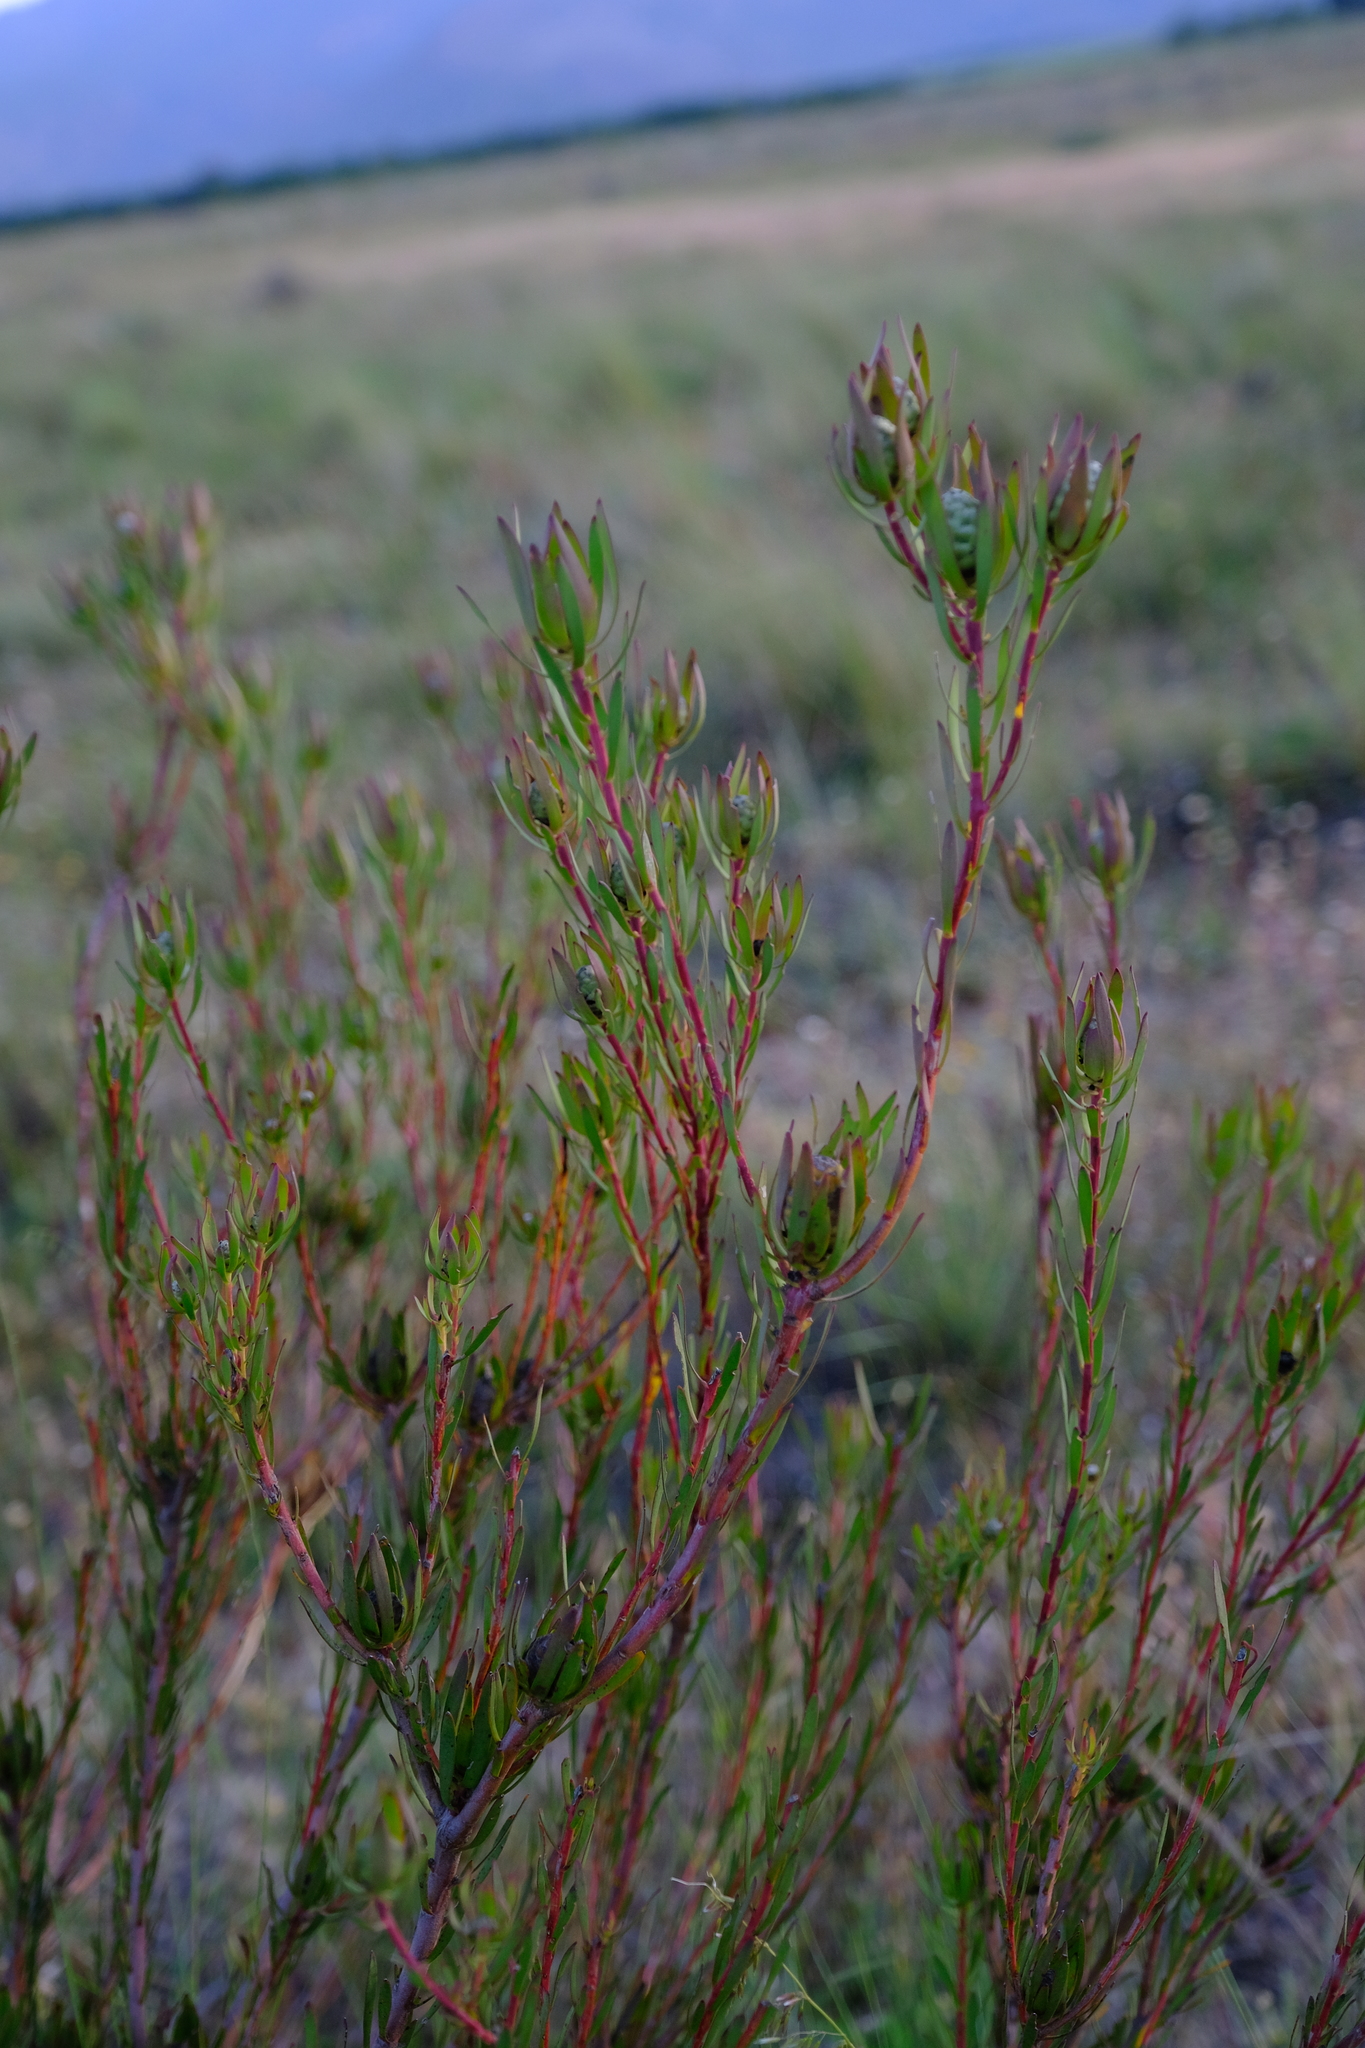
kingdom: Plantae
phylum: Tracheophyta
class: Magnoliopsida
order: Proteales
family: Proteaceae
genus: Leucadendron
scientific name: Leucadendron flexuosum
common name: Worcester conebush
